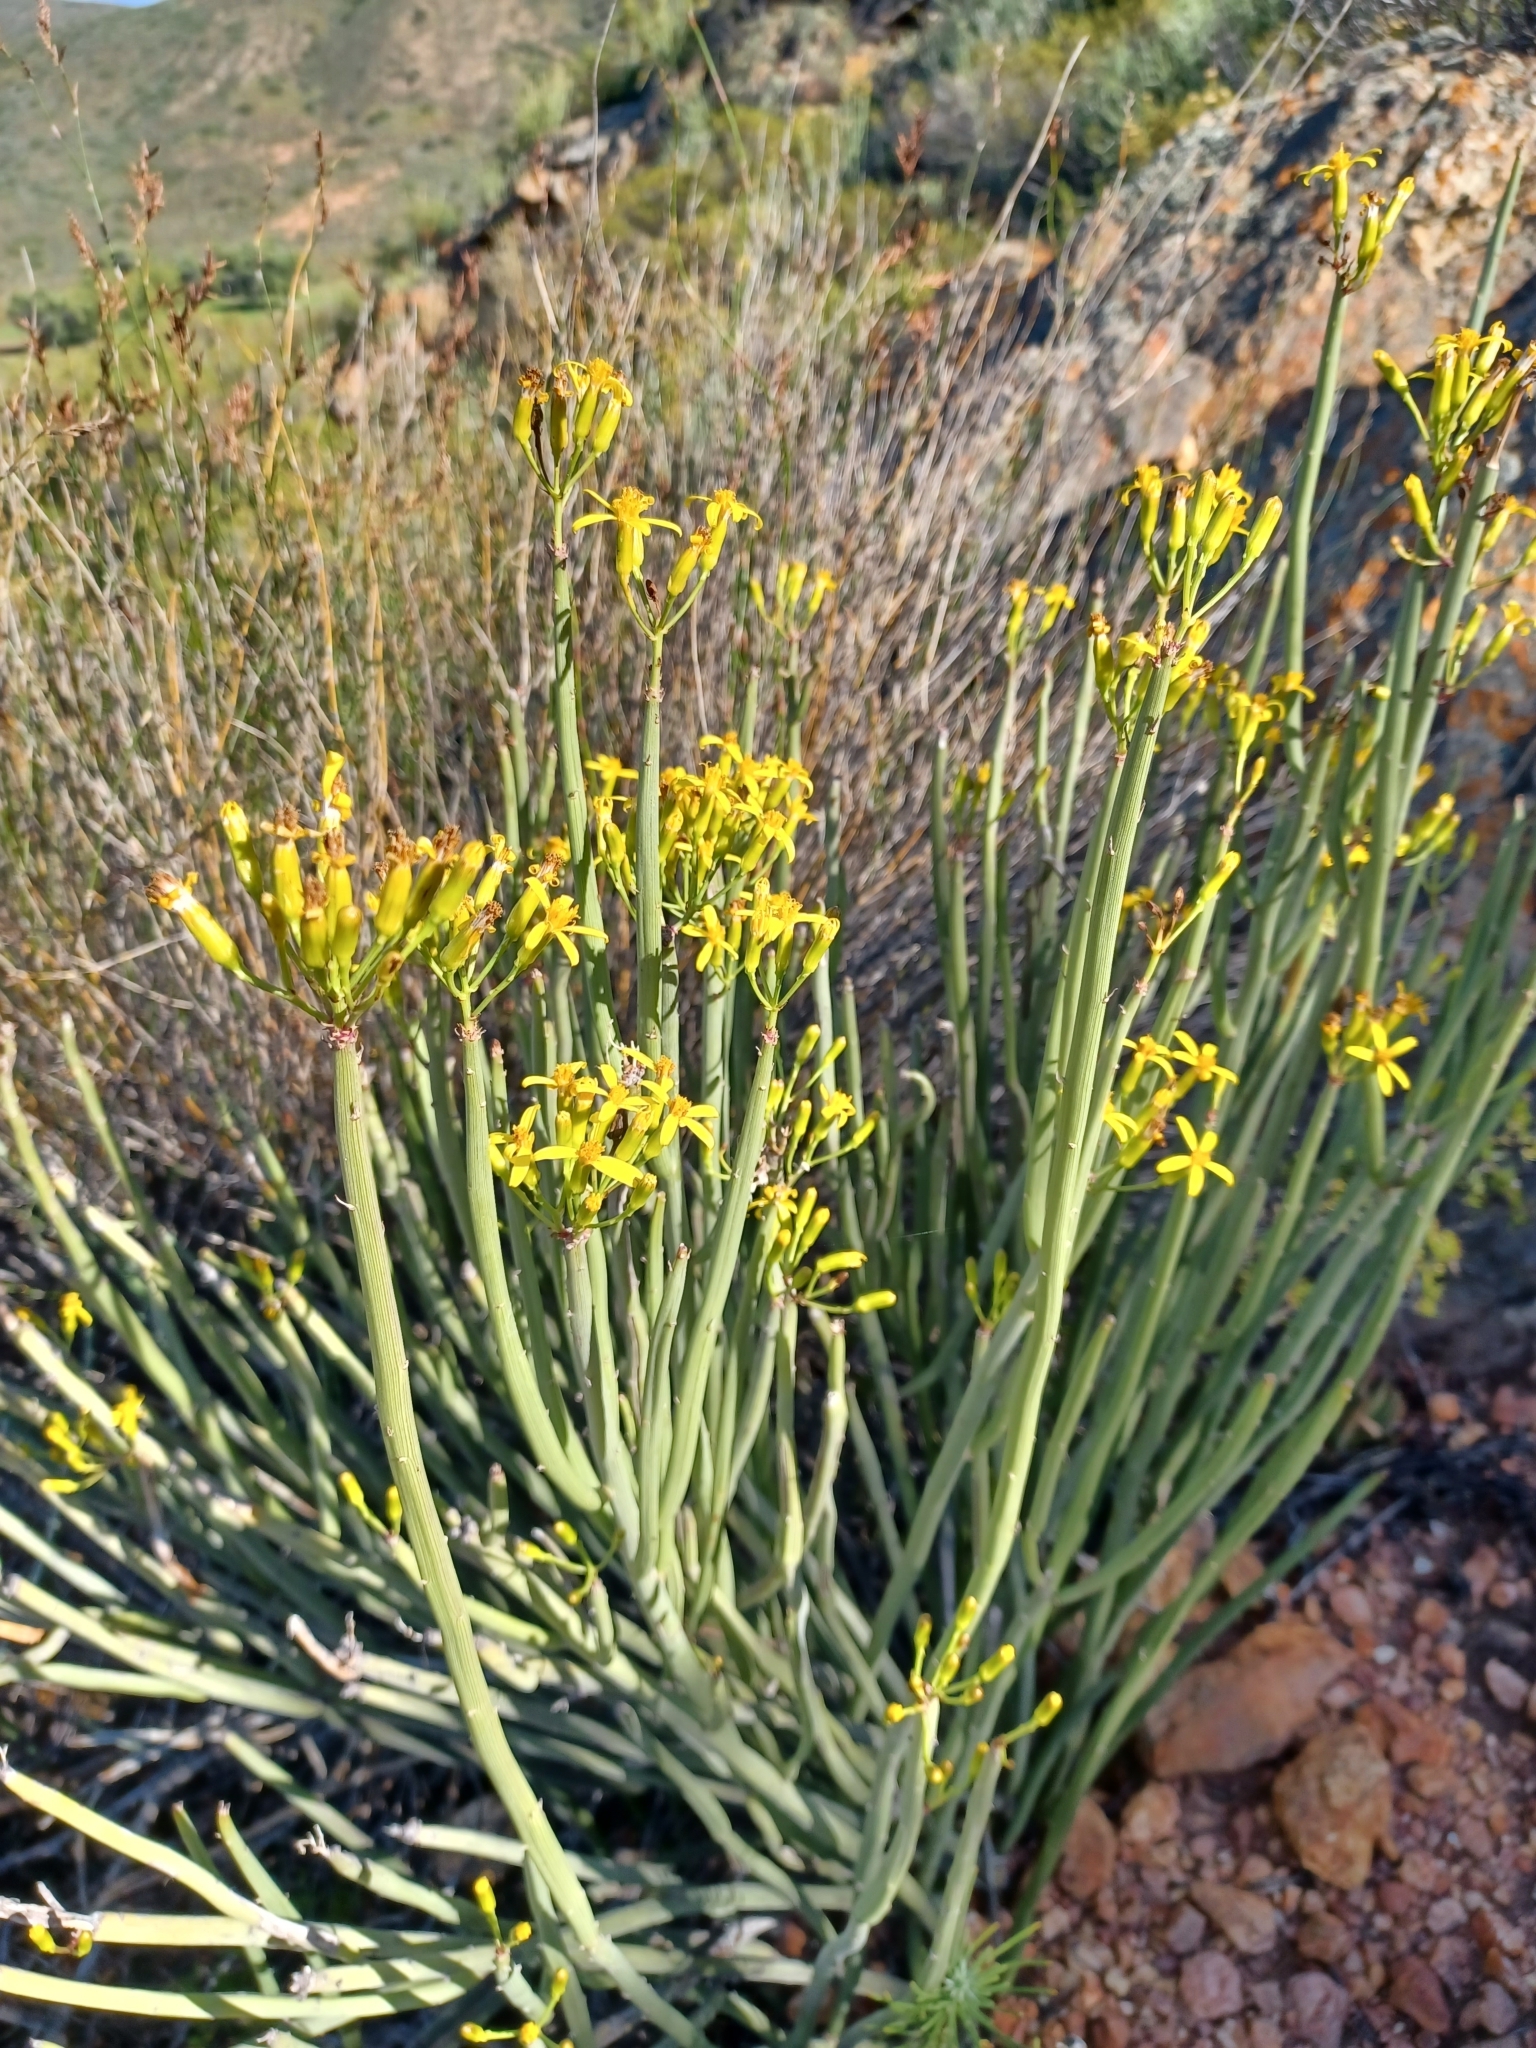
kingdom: Plantae
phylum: Tracheophyta
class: Magnoliopsida
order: Asterales
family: Asteraceae
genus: Senecio
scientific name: Senecio junceus
